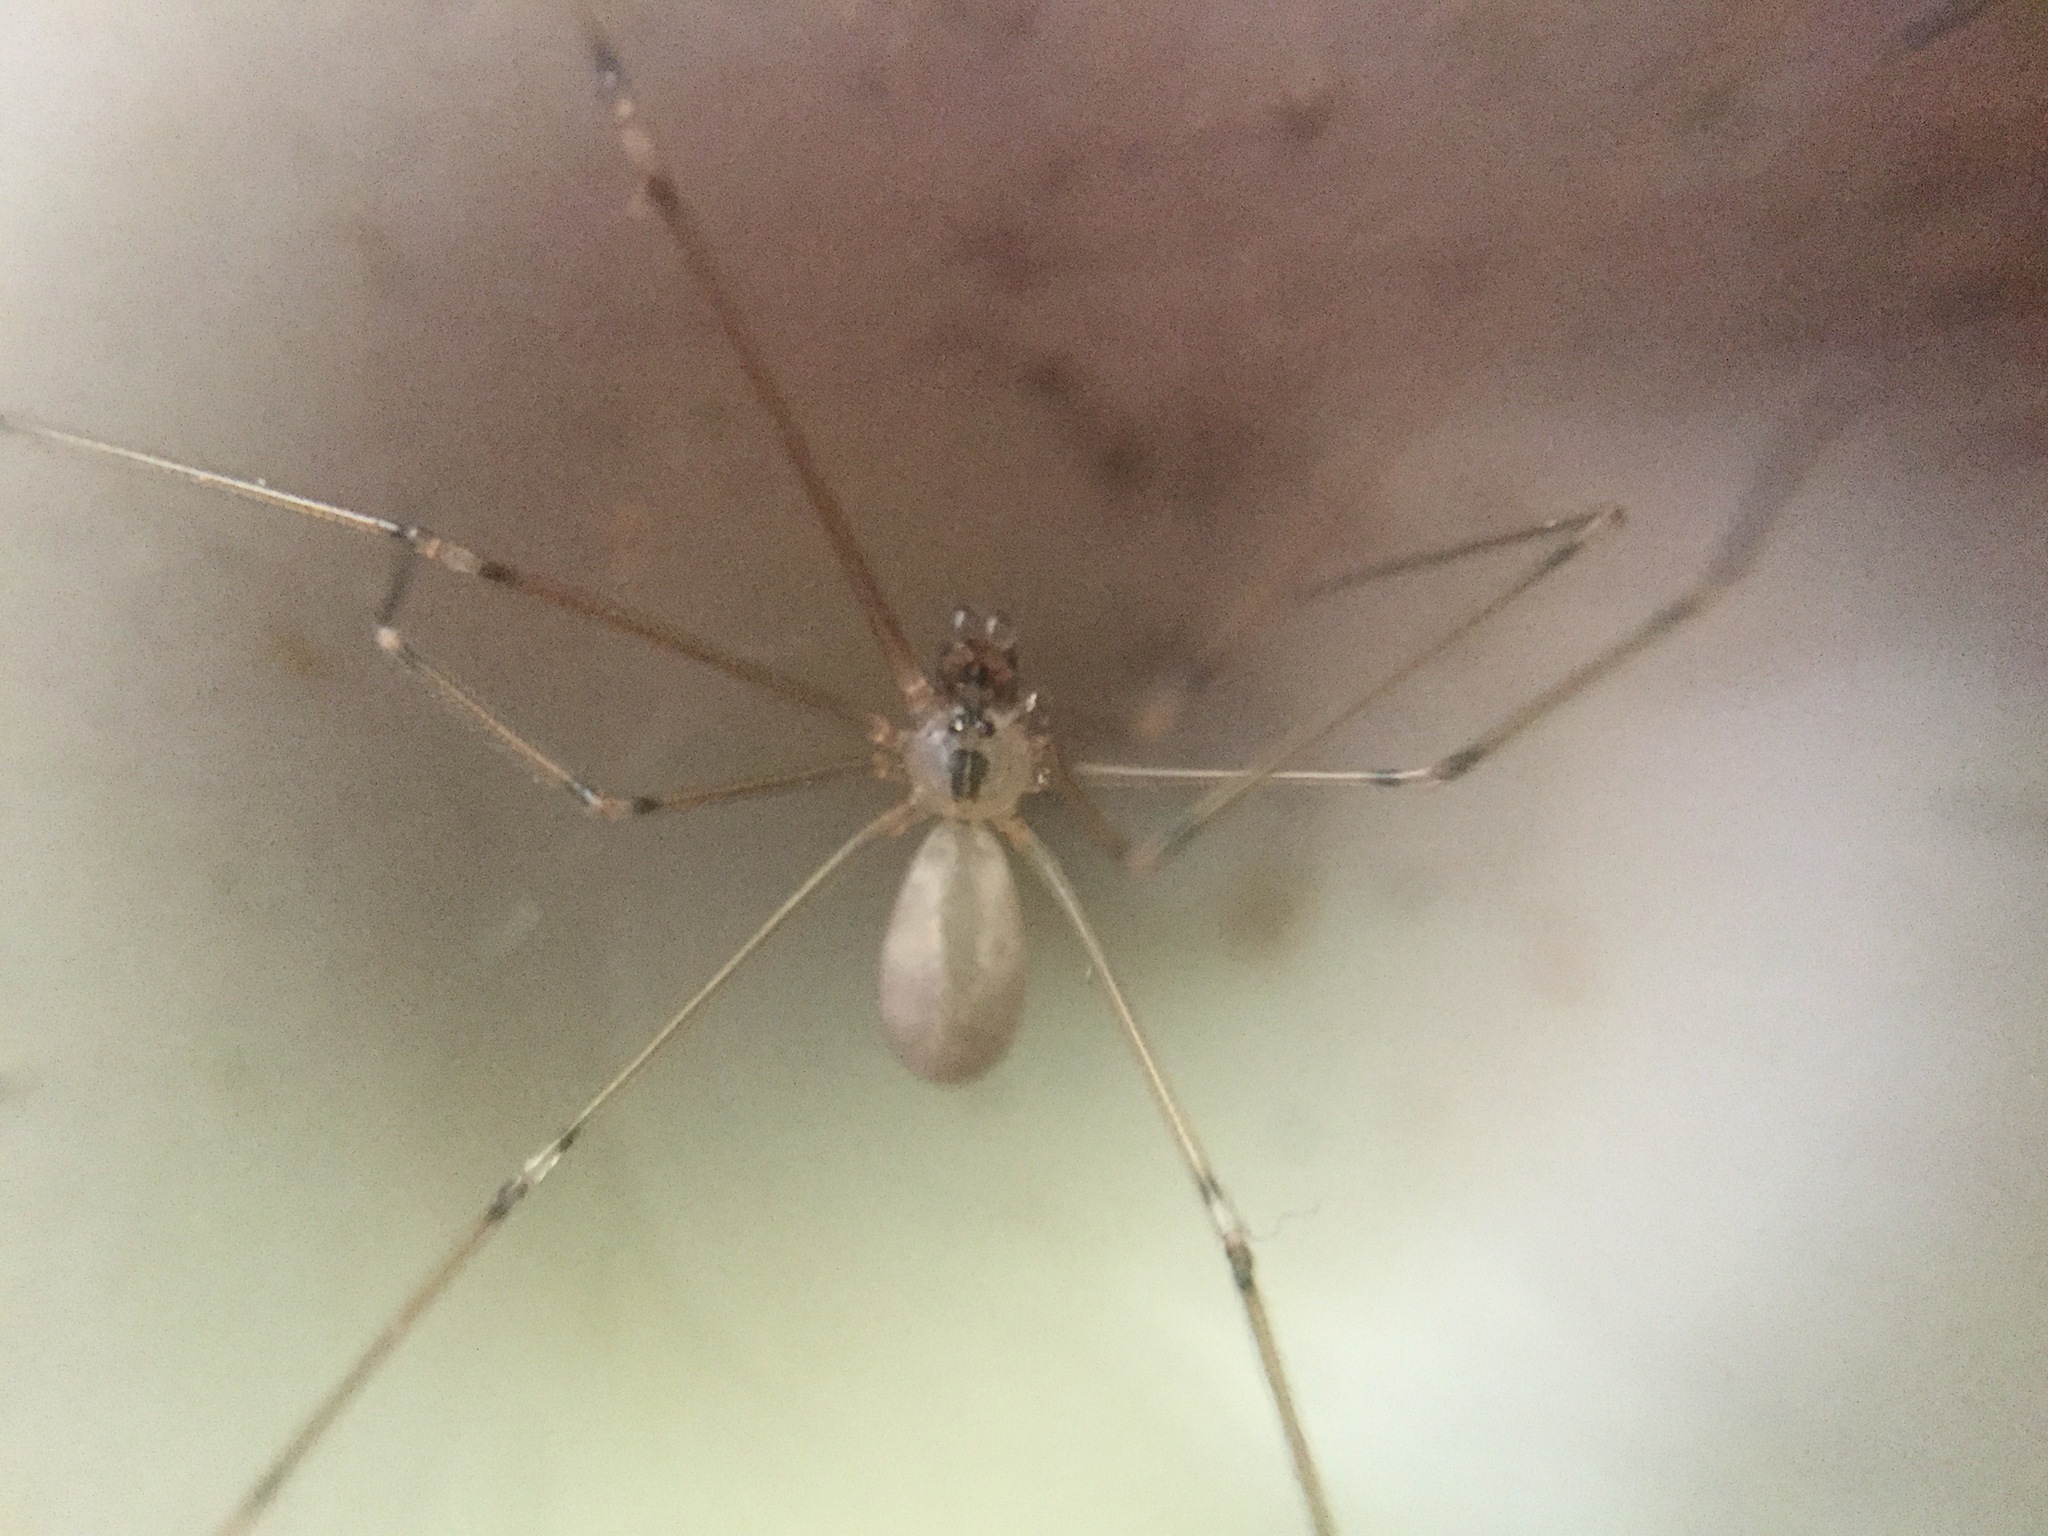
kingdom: Animalia
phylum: Arthropoda
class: Arachnida
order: Araneae
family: Pholcidae
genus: Pholcus
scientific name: Pholcus manueli
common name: Cellar spider
